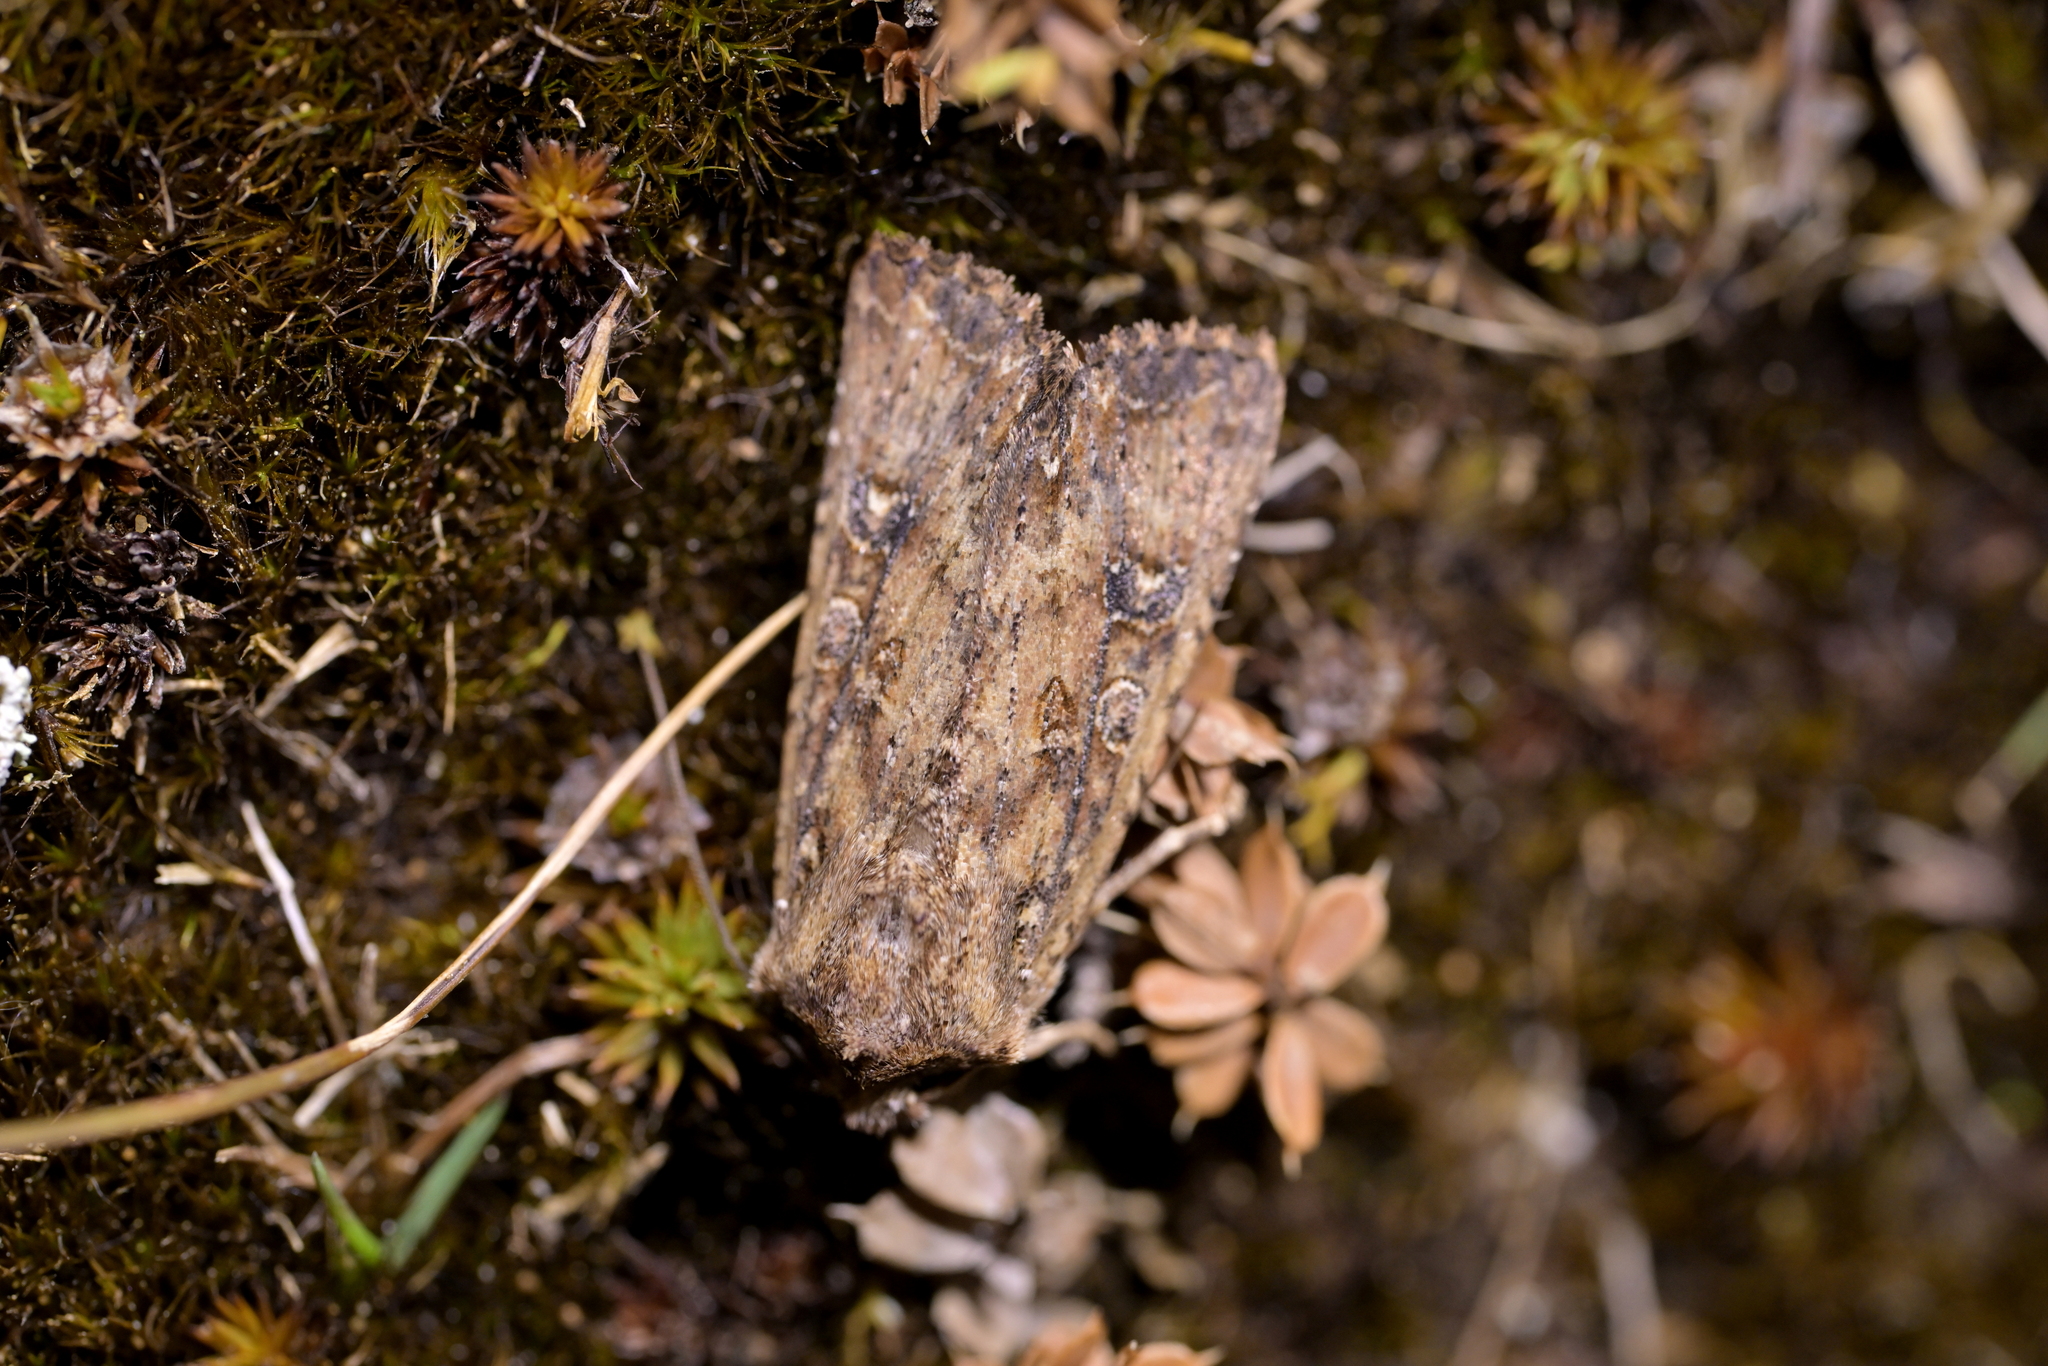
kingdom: Animalia
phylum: Arthropoda
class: Insecta
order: Lepidoptera
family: Noctuidae
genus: Ichneutica
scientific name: Ichneutica morosa
